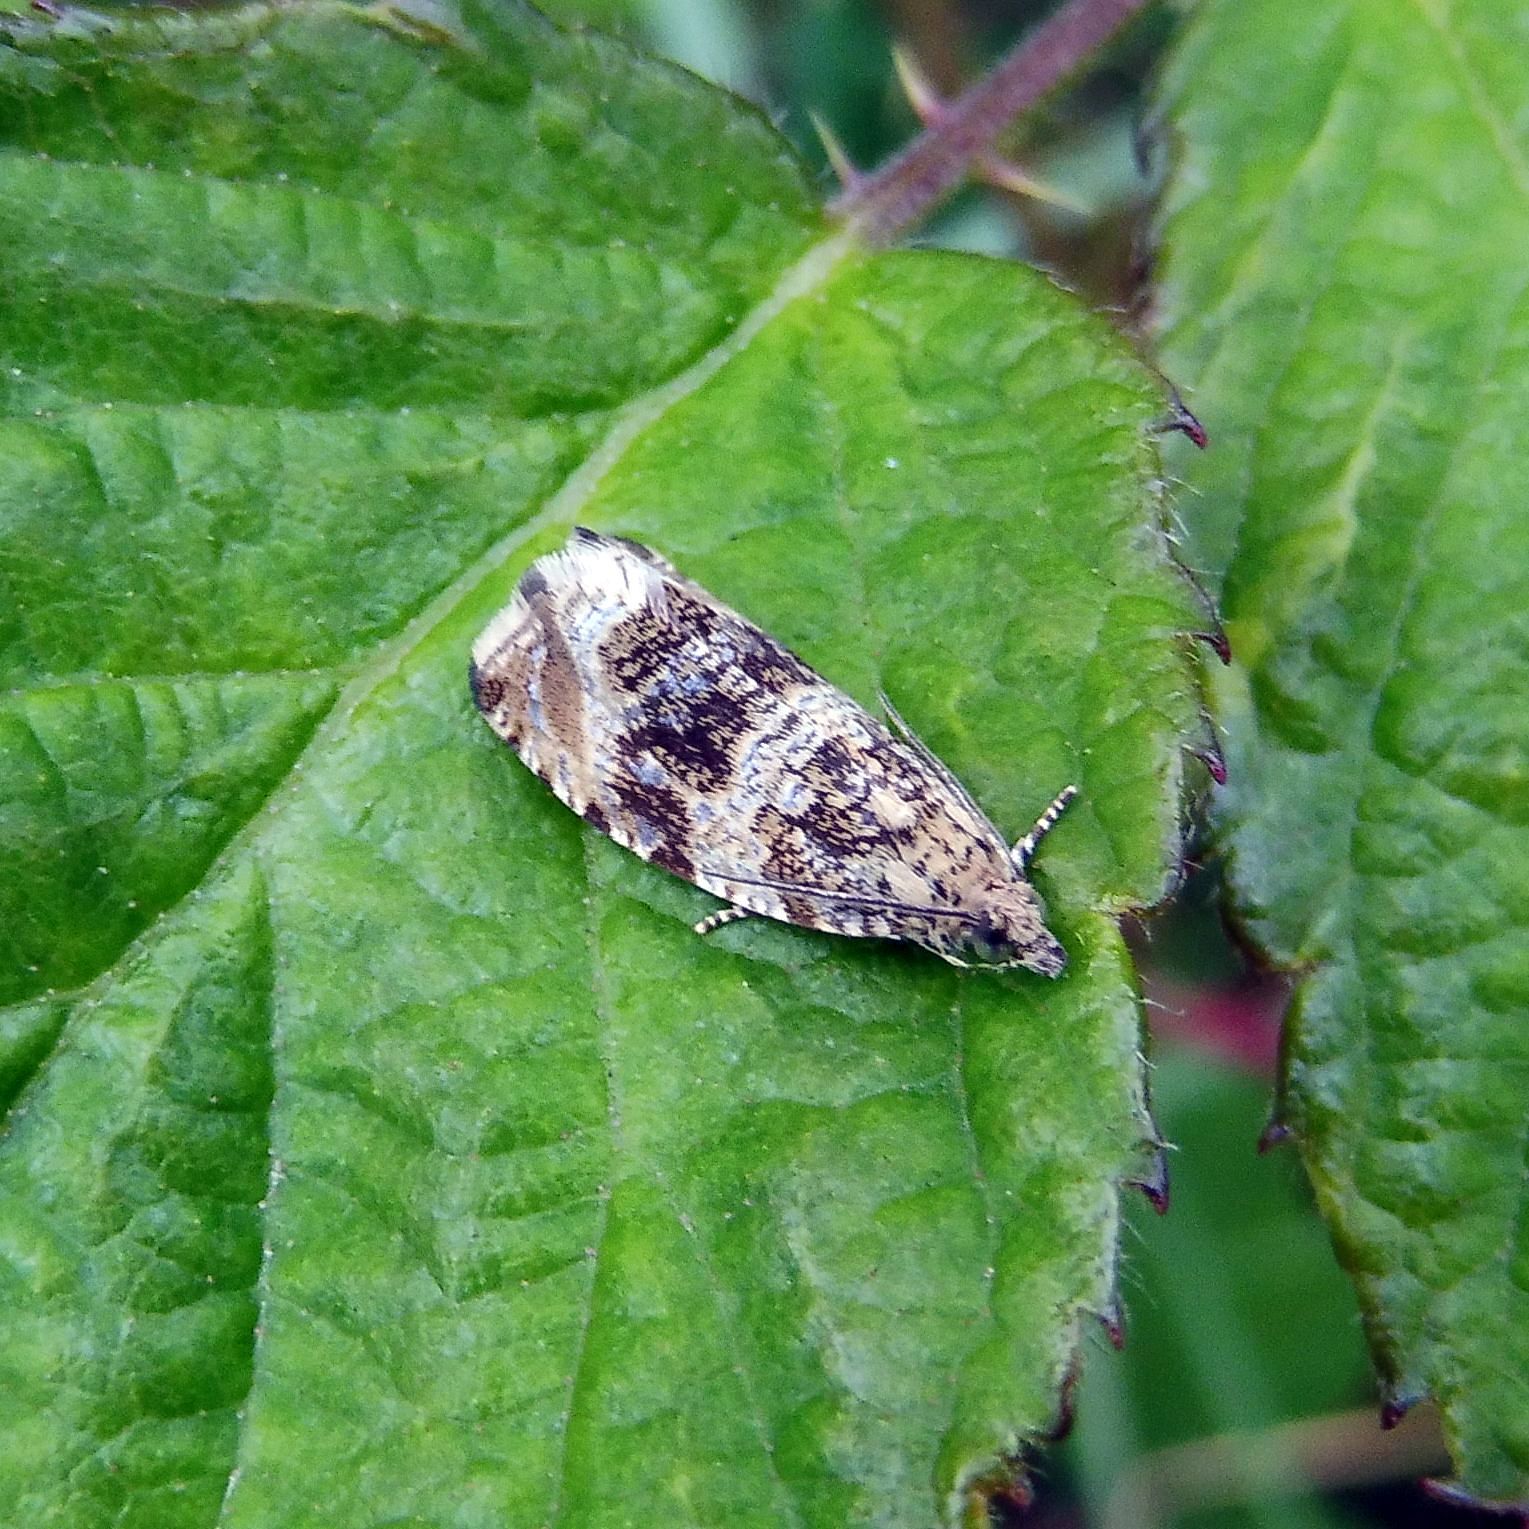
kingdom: Animalia
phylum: Arthropoda
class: Insecta
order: Lepidoptera
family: Tortricidae
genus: Syricoris
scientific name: Syricoris lacunana
